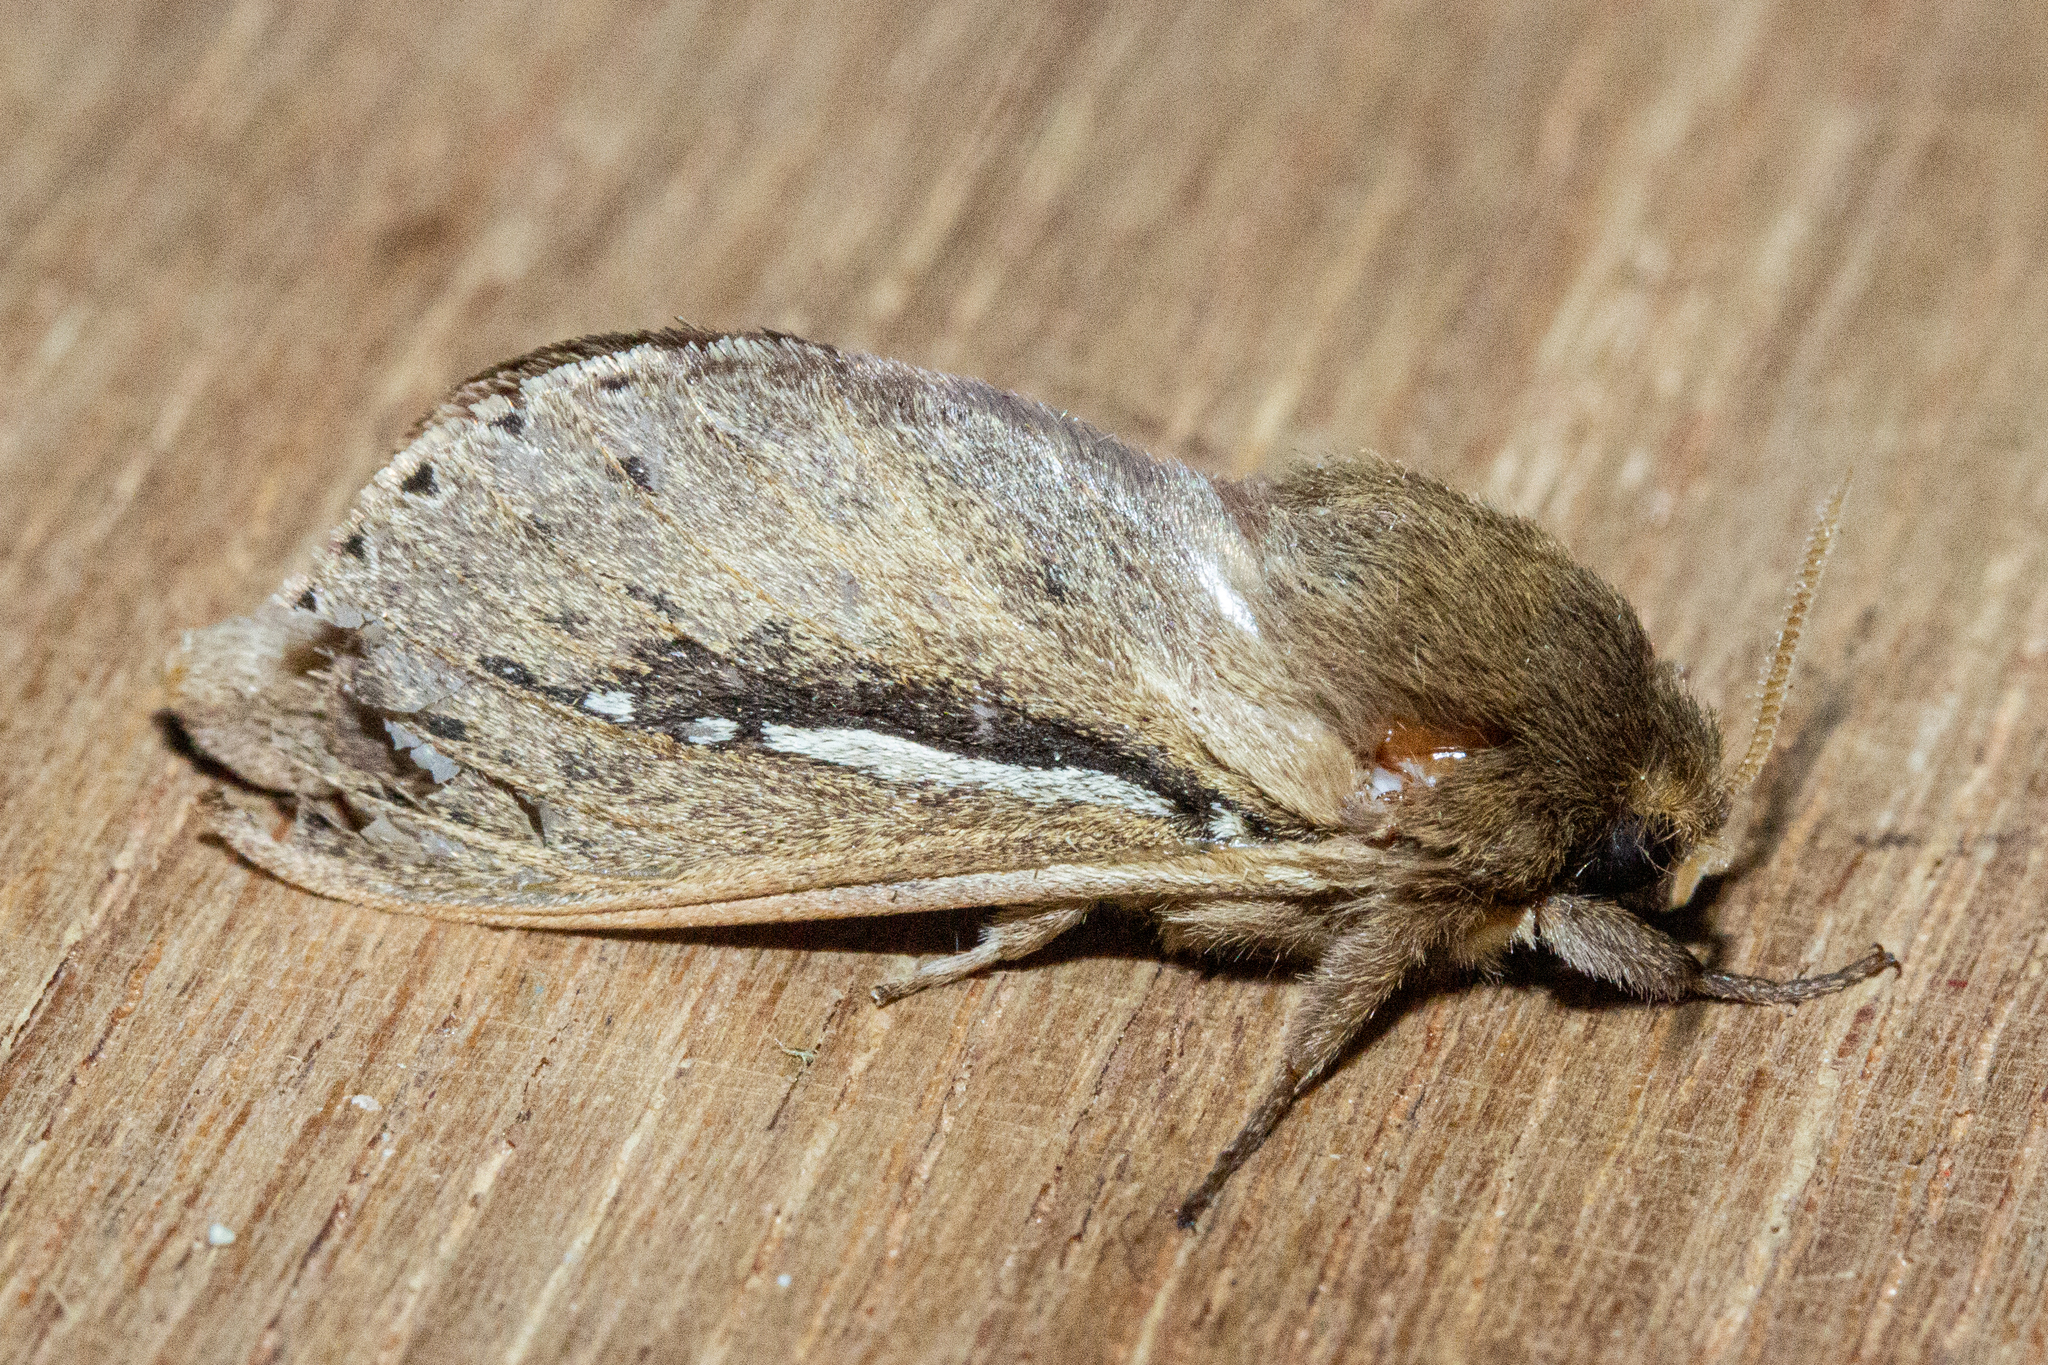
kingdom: Animalia
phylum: Arthropoda
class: Insecta
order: Lepidoptera
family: Hepialidae
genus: Wiseana
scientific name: Wiseana umbraculatus
